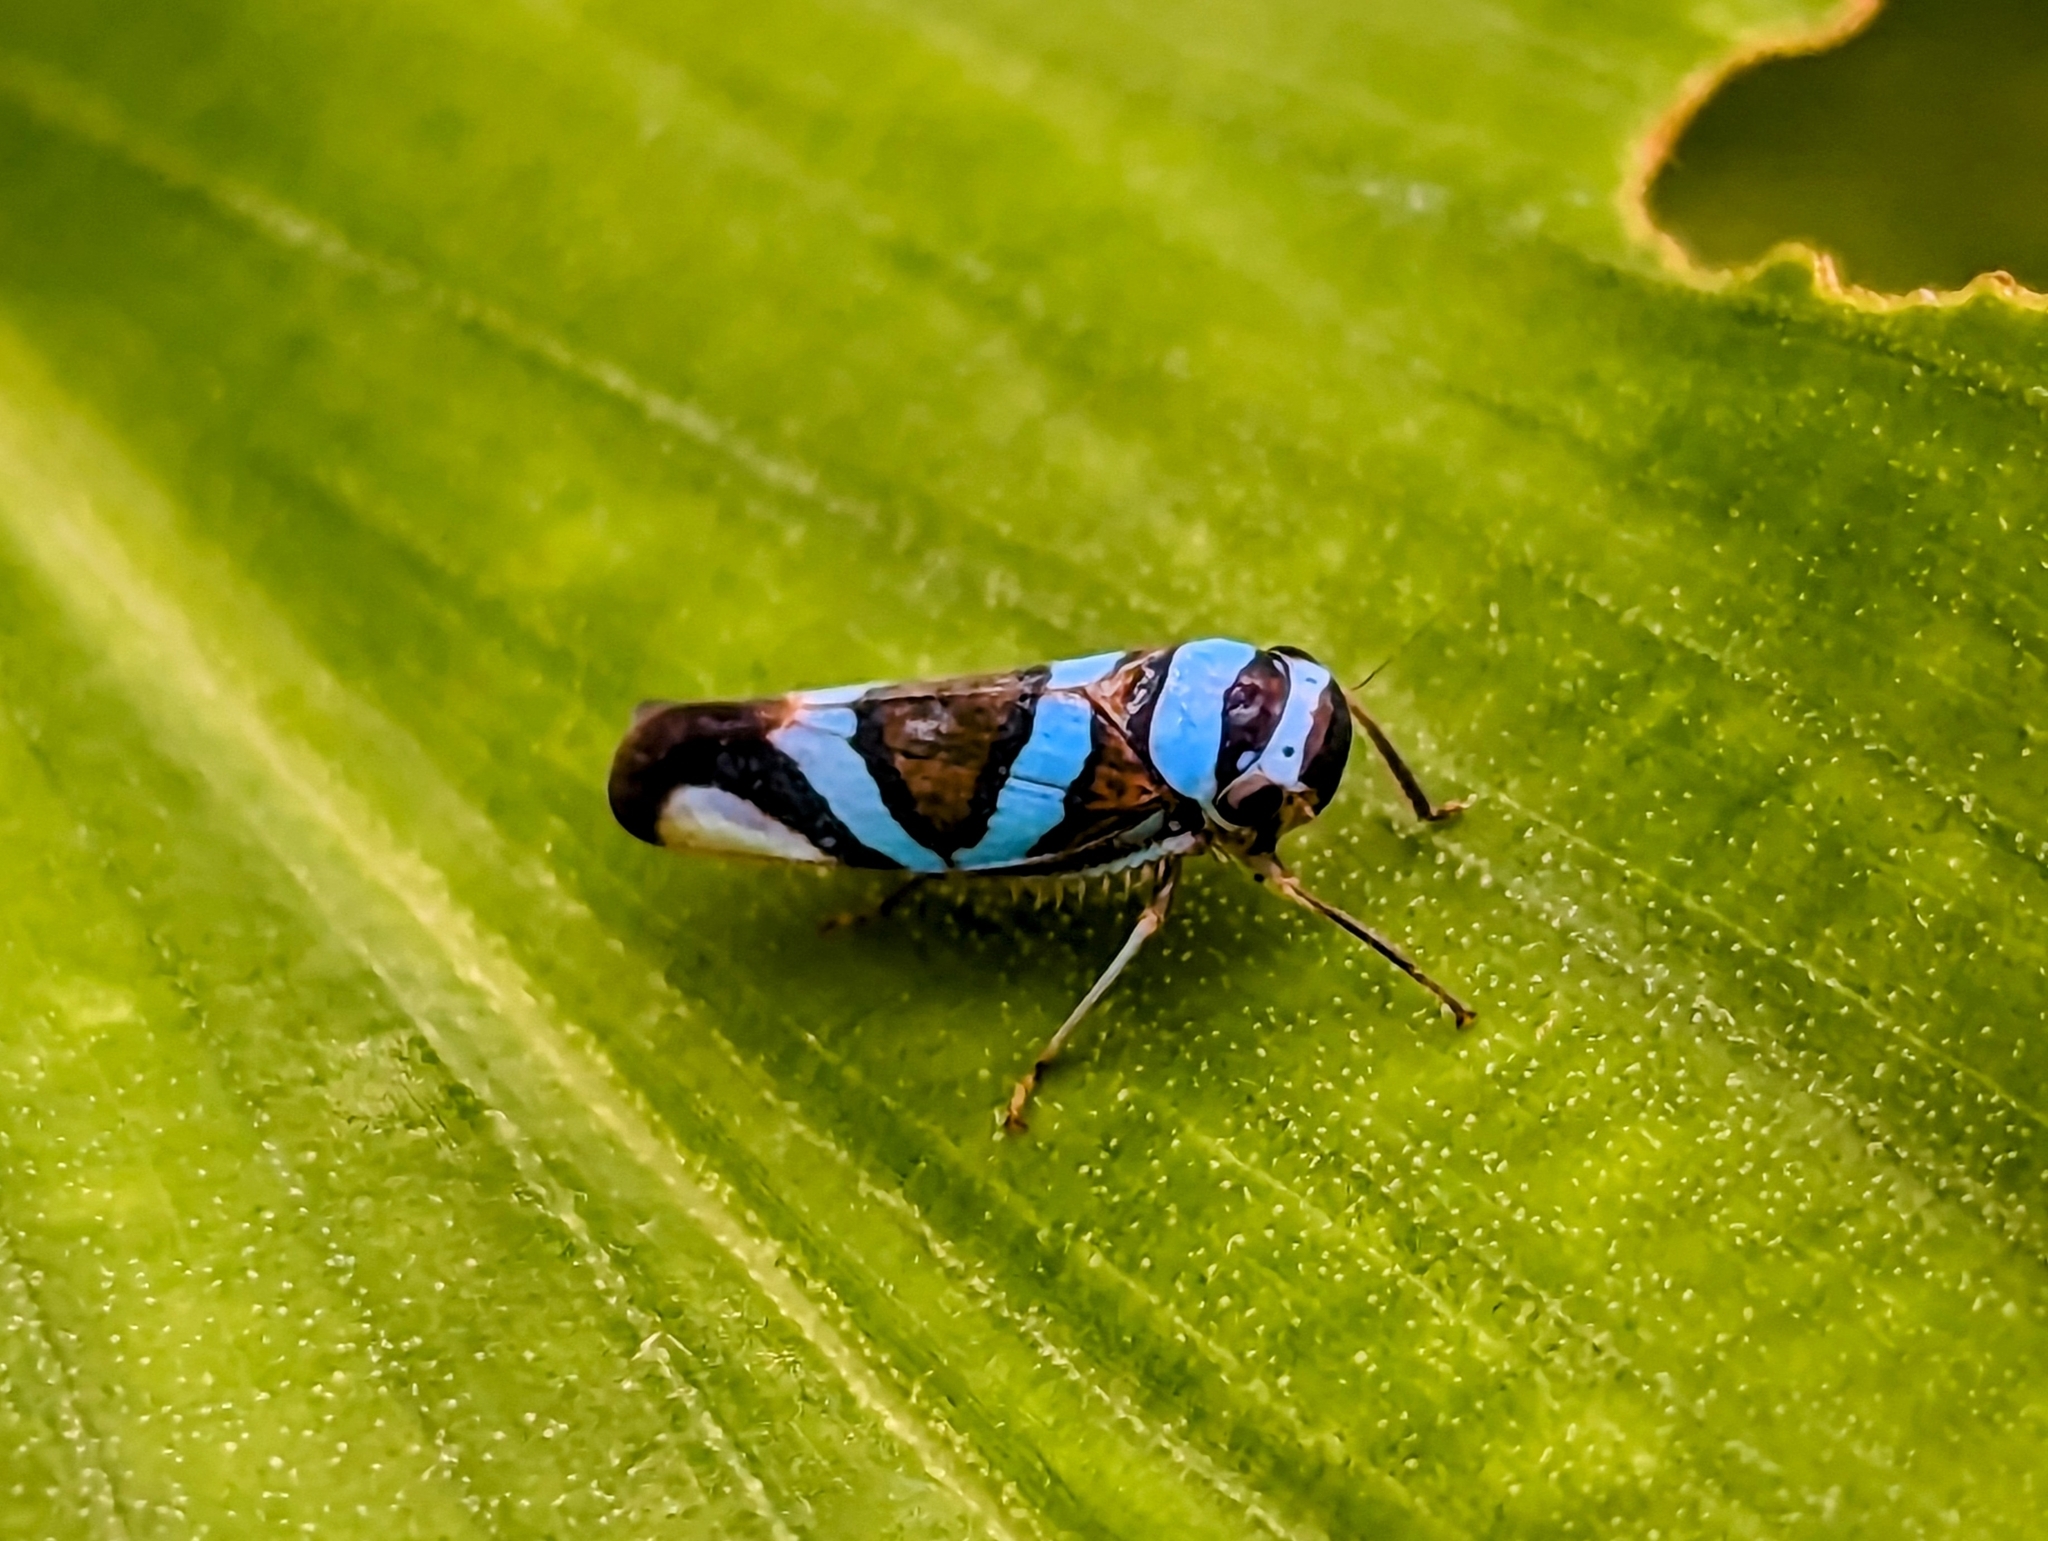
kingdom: Animalia
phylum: Arthropoda
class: Insecta
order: Hemiptera
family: Cicadellidae
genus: Macugonalia
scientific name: Macugonalia moesta
